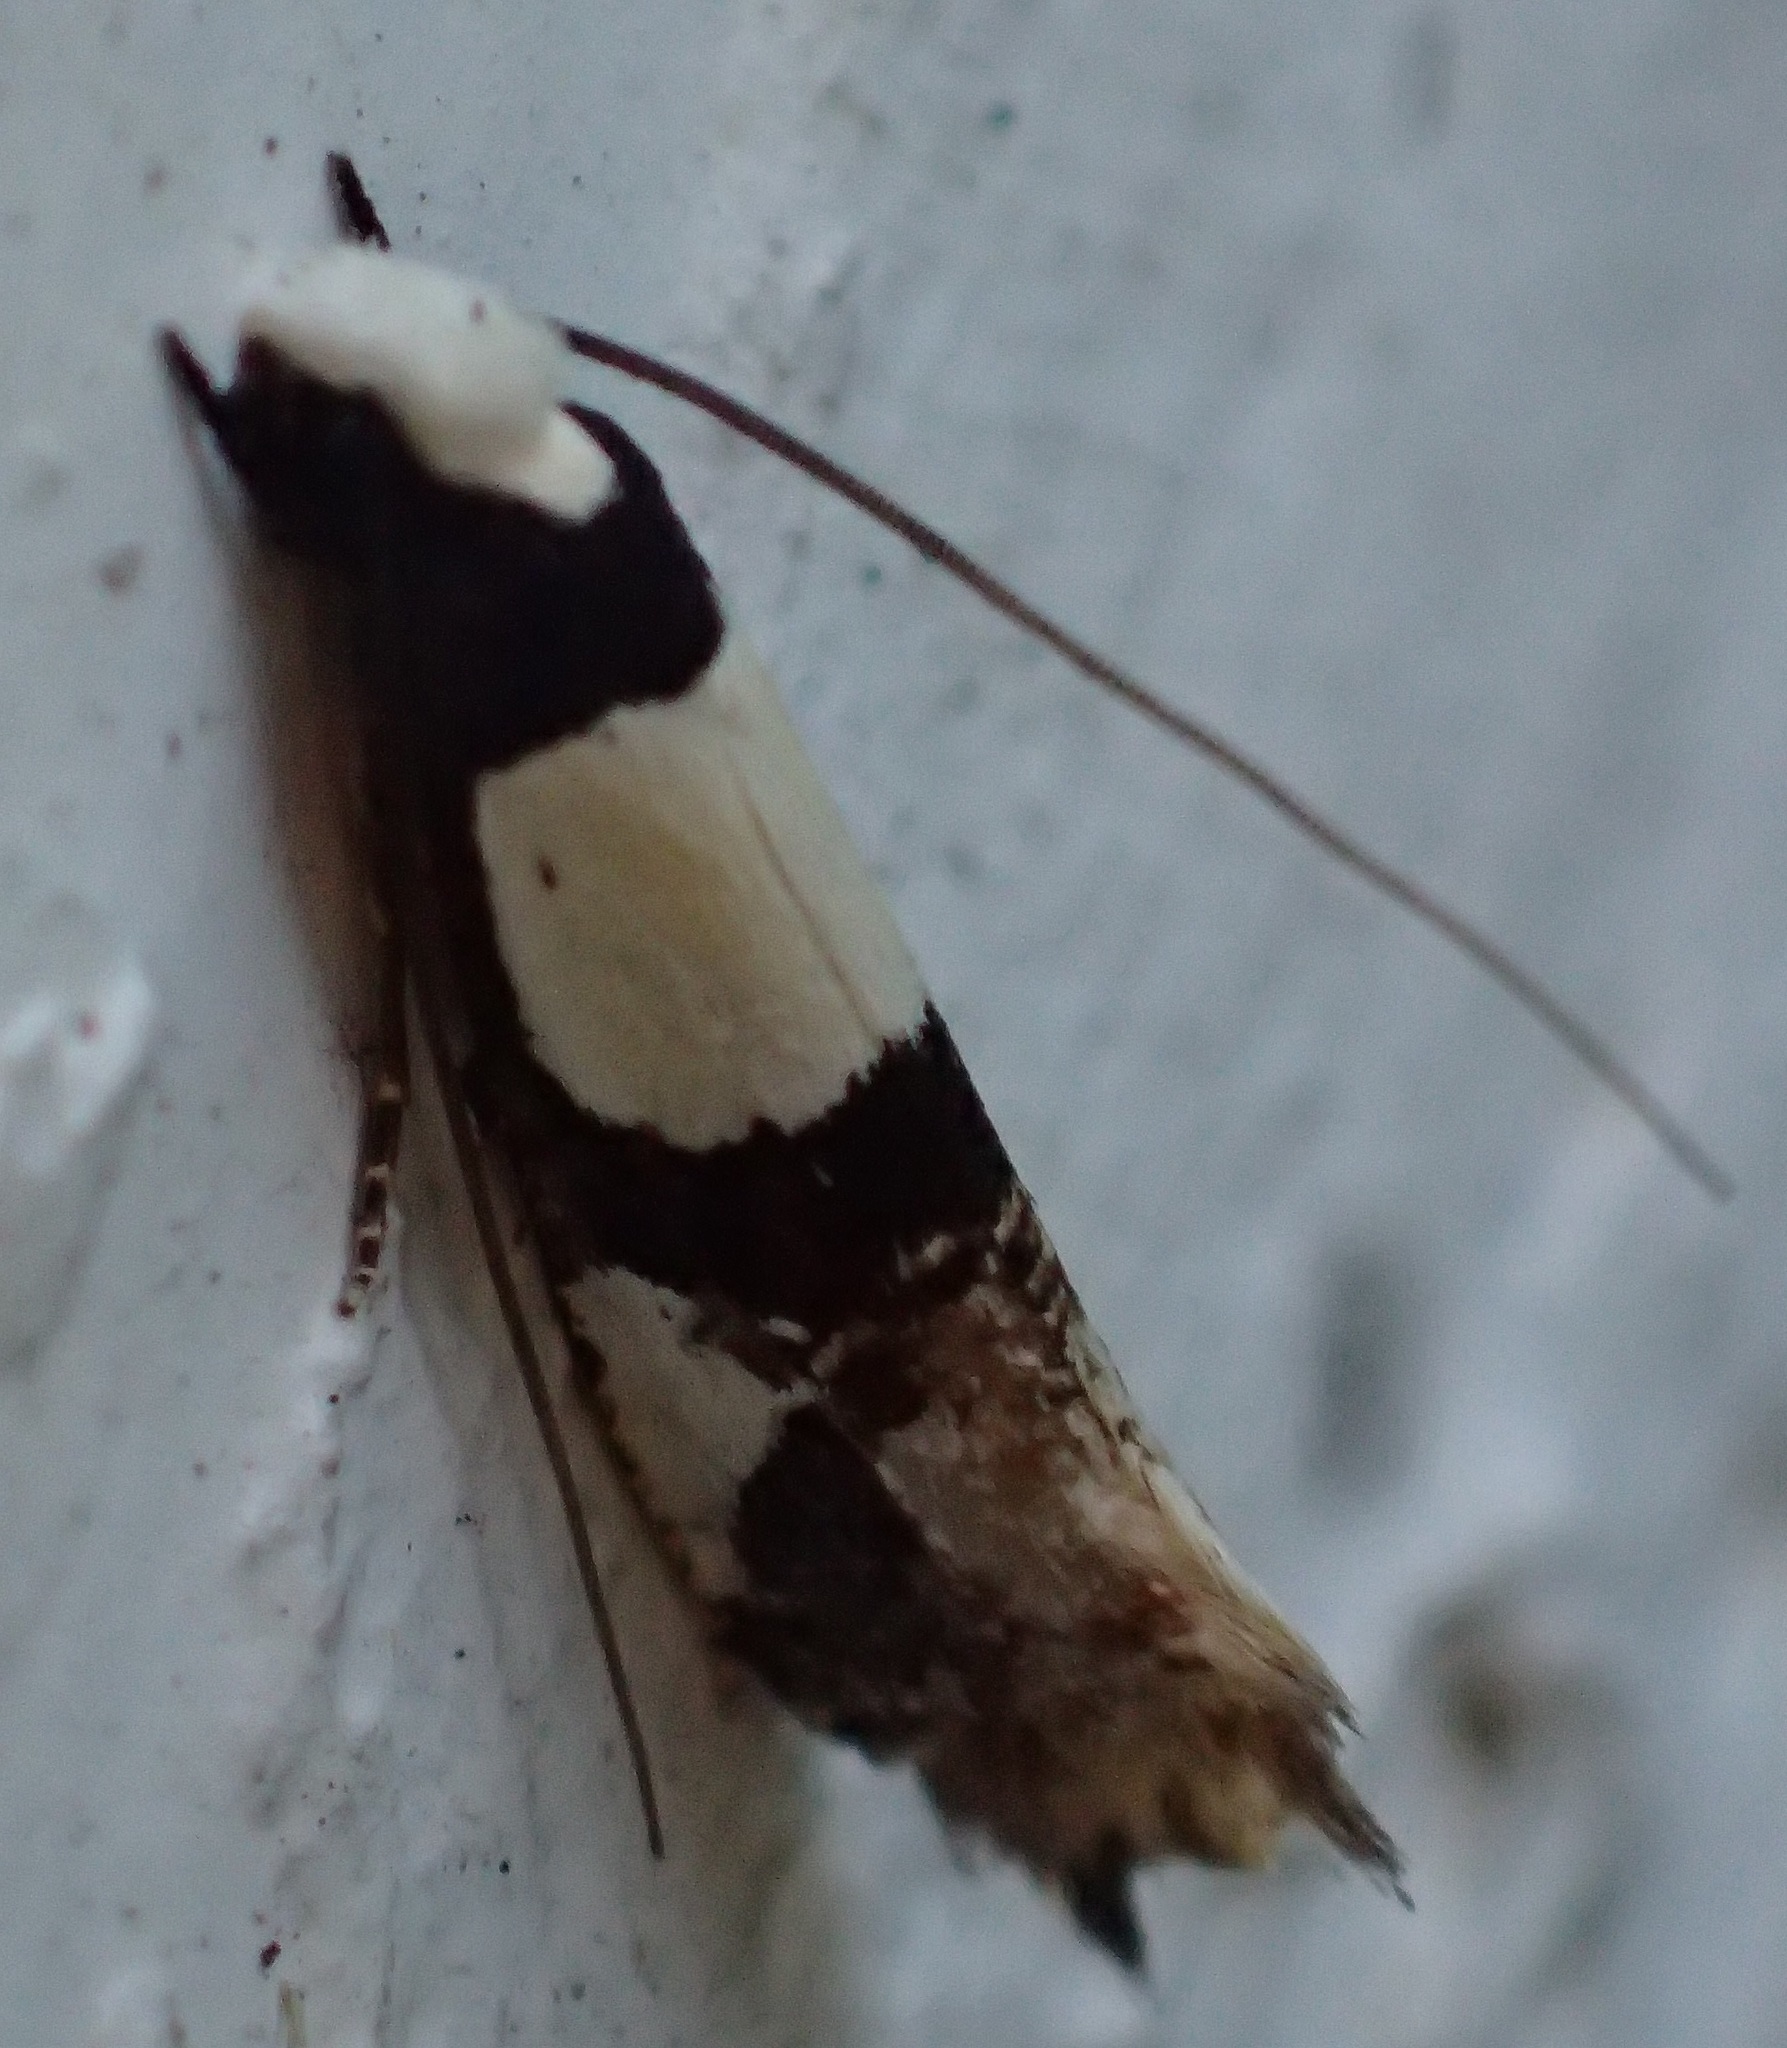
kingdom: Animalia
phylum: Arthropoda
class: Insecta
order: Lepidoptera
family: Tineidae
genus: Monopis
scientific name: Monopis icterogastra
